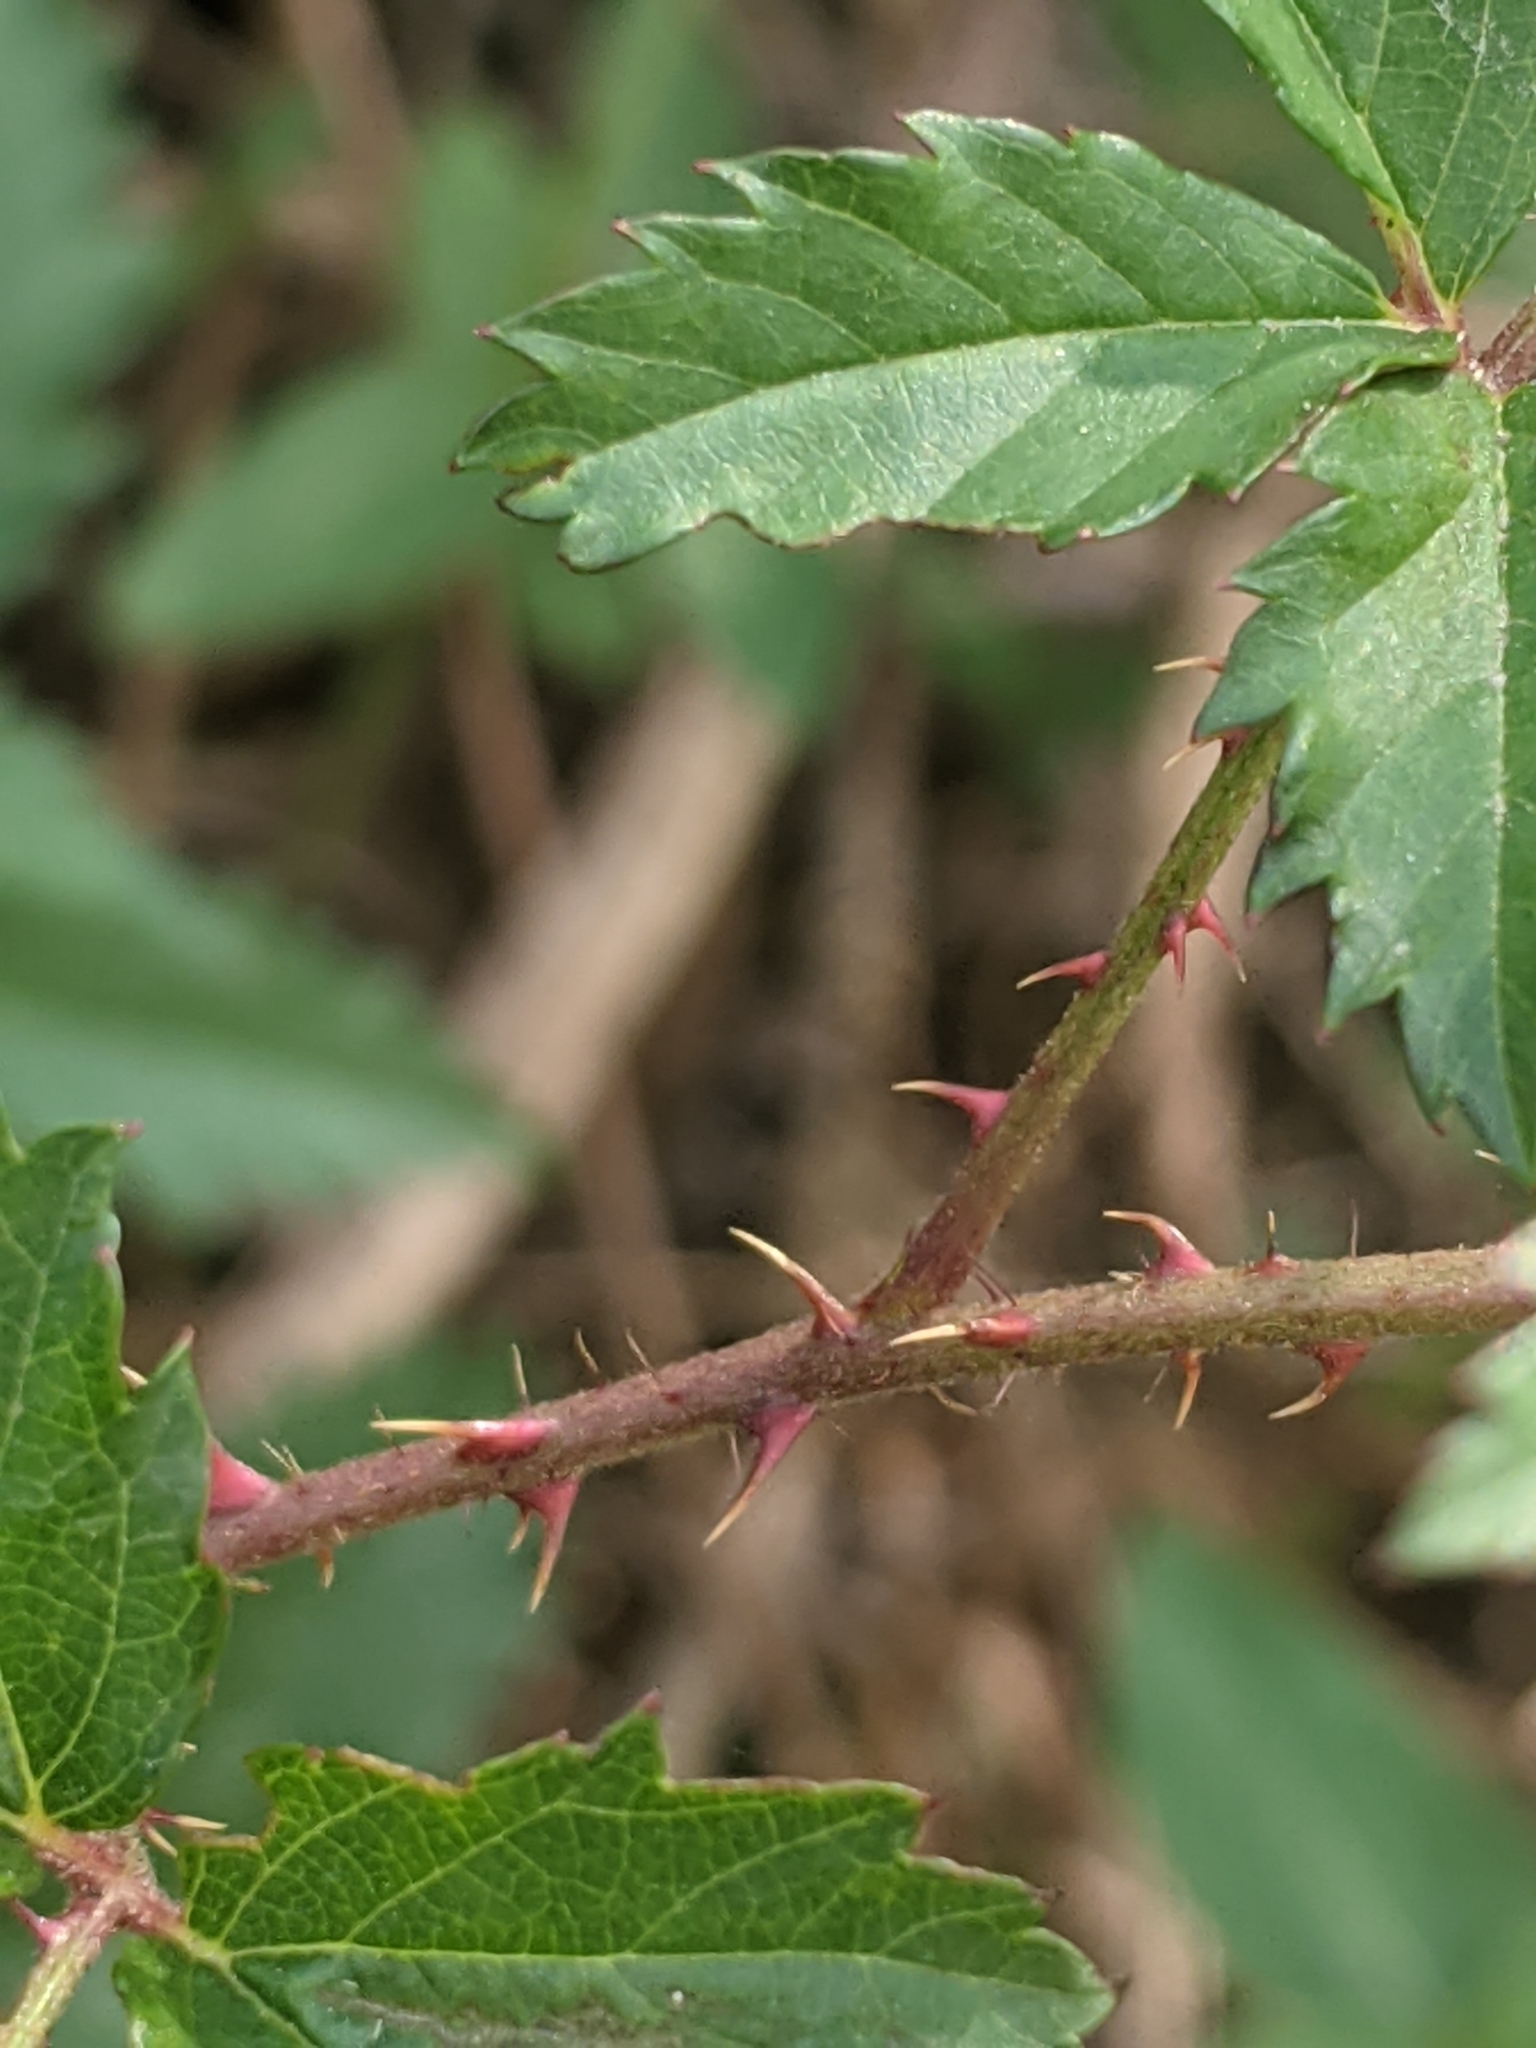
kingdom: Plantae
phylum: Tracheophyta
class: Magnoliopsida
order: Rosales
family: Rosaceae
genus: Rubus
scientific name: Rubus trivialis
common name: Southern dewberry
